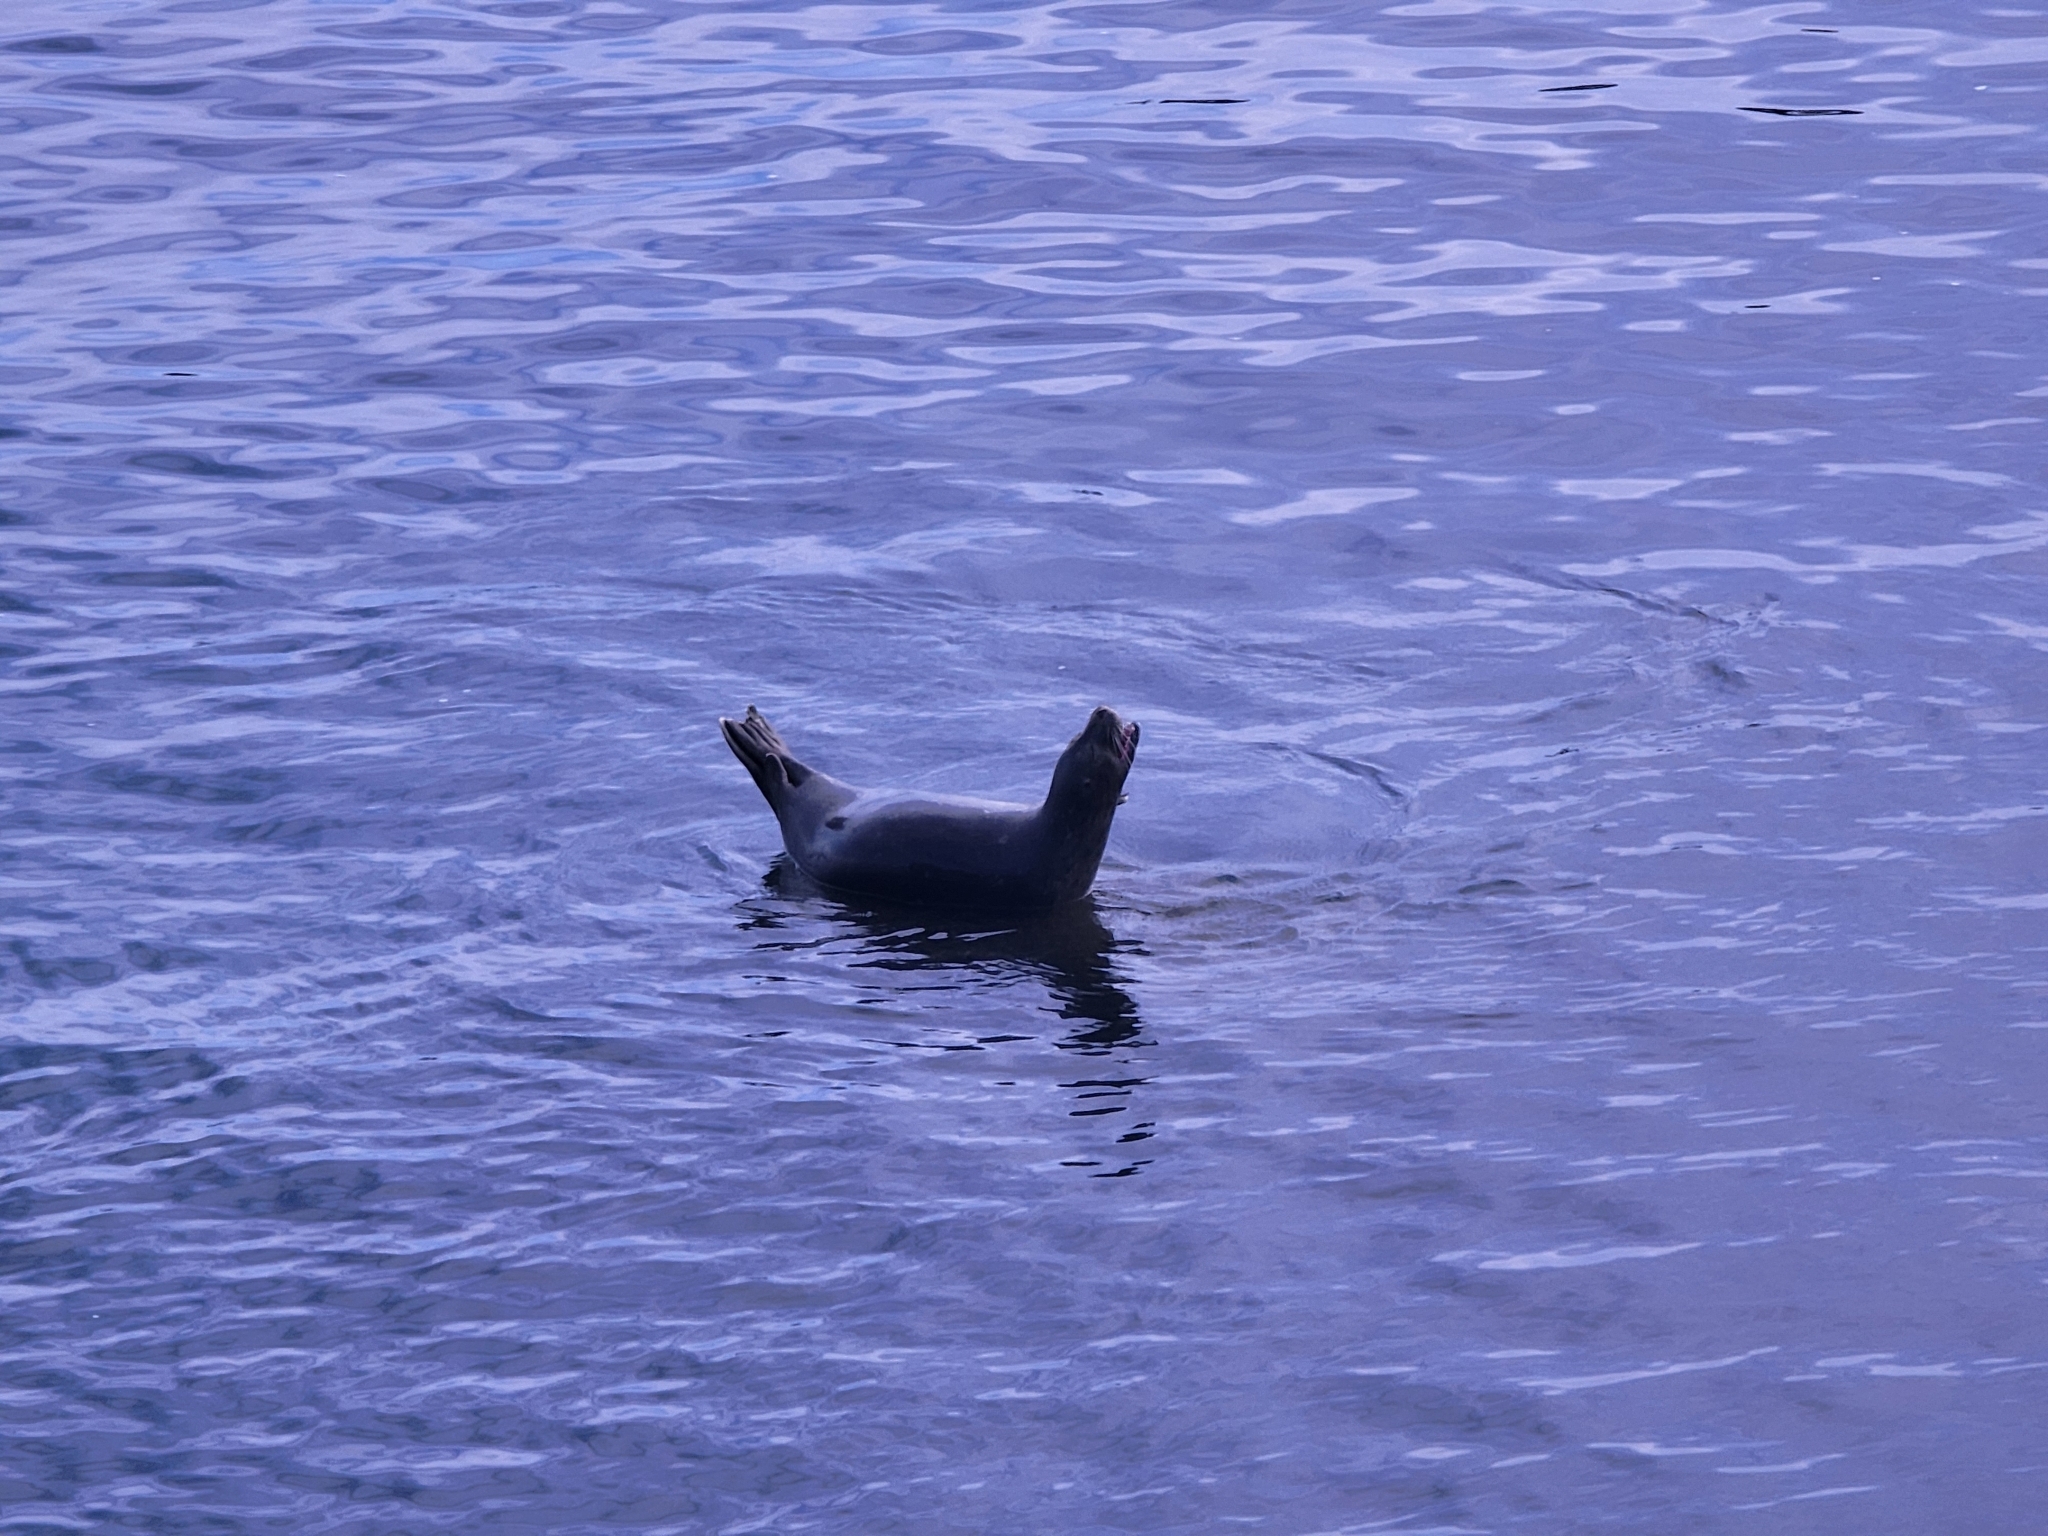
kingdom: Animalia
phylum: Chordata
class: Mammalia
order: Carnivora
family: Phocidae
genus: Phoca
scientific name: Phoca vitulina
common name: Harbor seal
